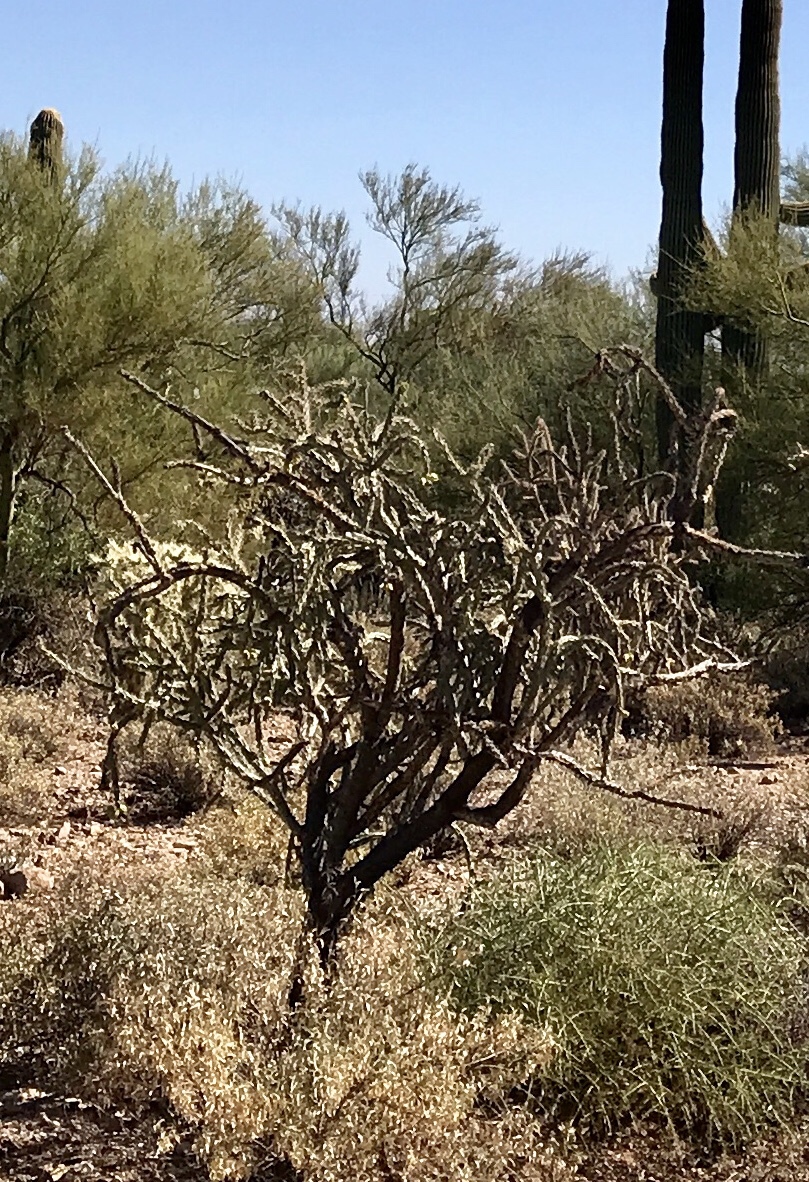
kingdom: Plantae
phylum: Tracheophyta
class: Magnoliopsida
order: Caryophyllales
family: Cactaceae
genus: Cylindropuntia
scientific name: Cylindropuntia thurberi
